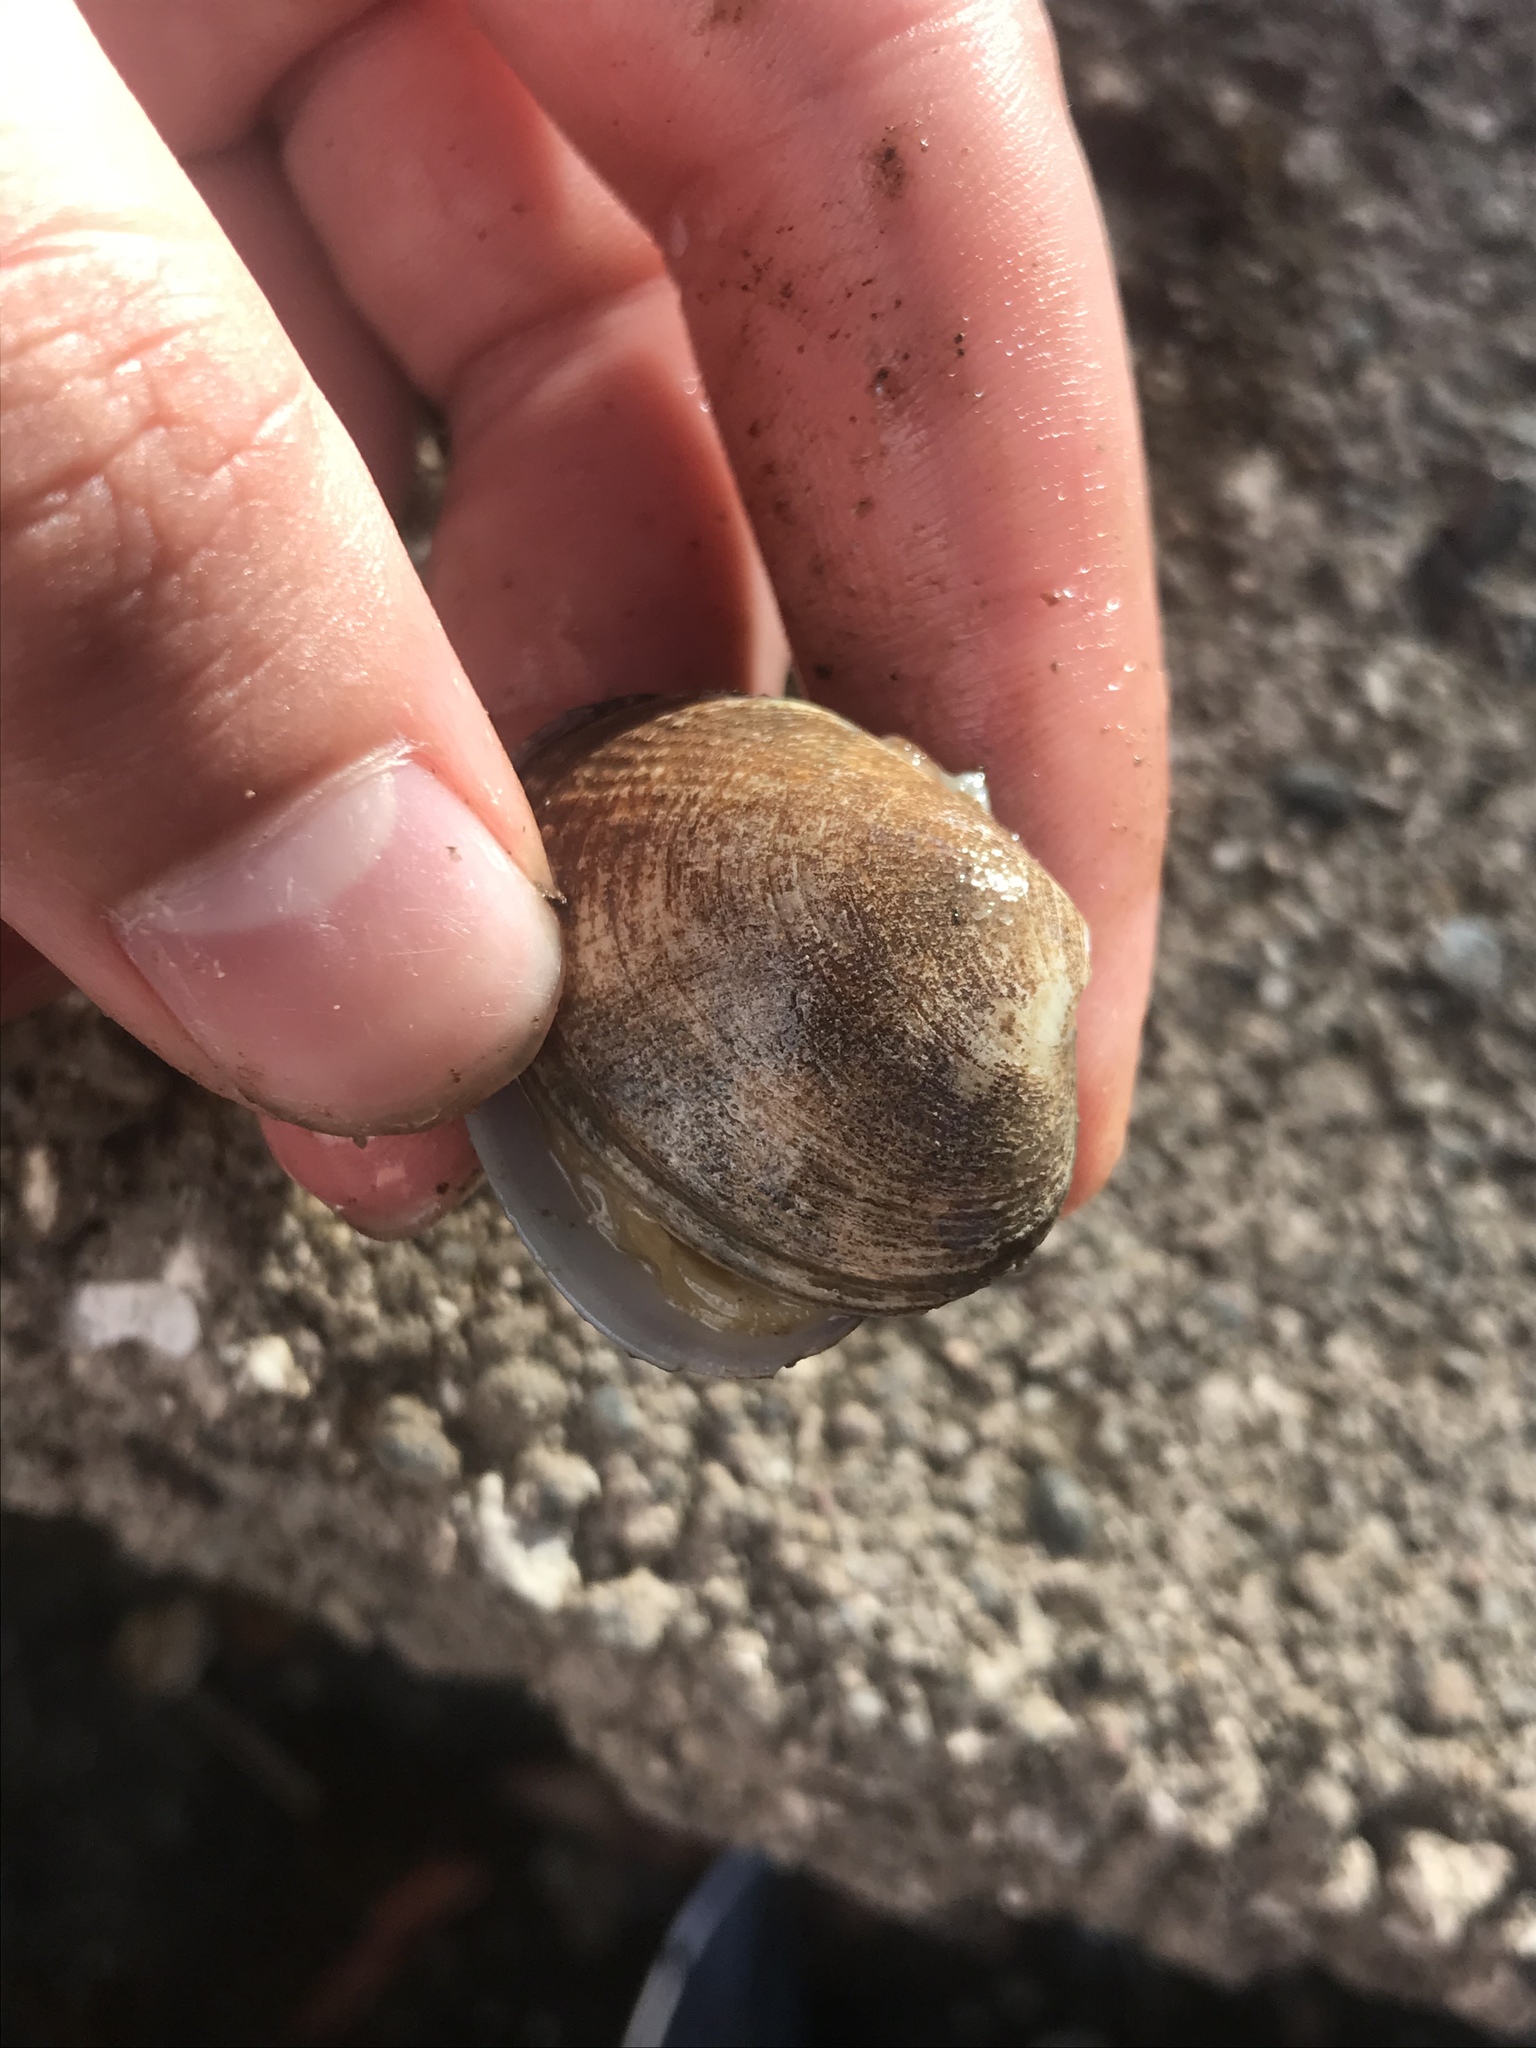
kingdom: Animalia
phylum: Mollusca
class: Bivalvia
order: Venerida
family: Veneridae
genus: Ruditapes
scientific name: Ruditapes philippinarum
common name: Manila clam
